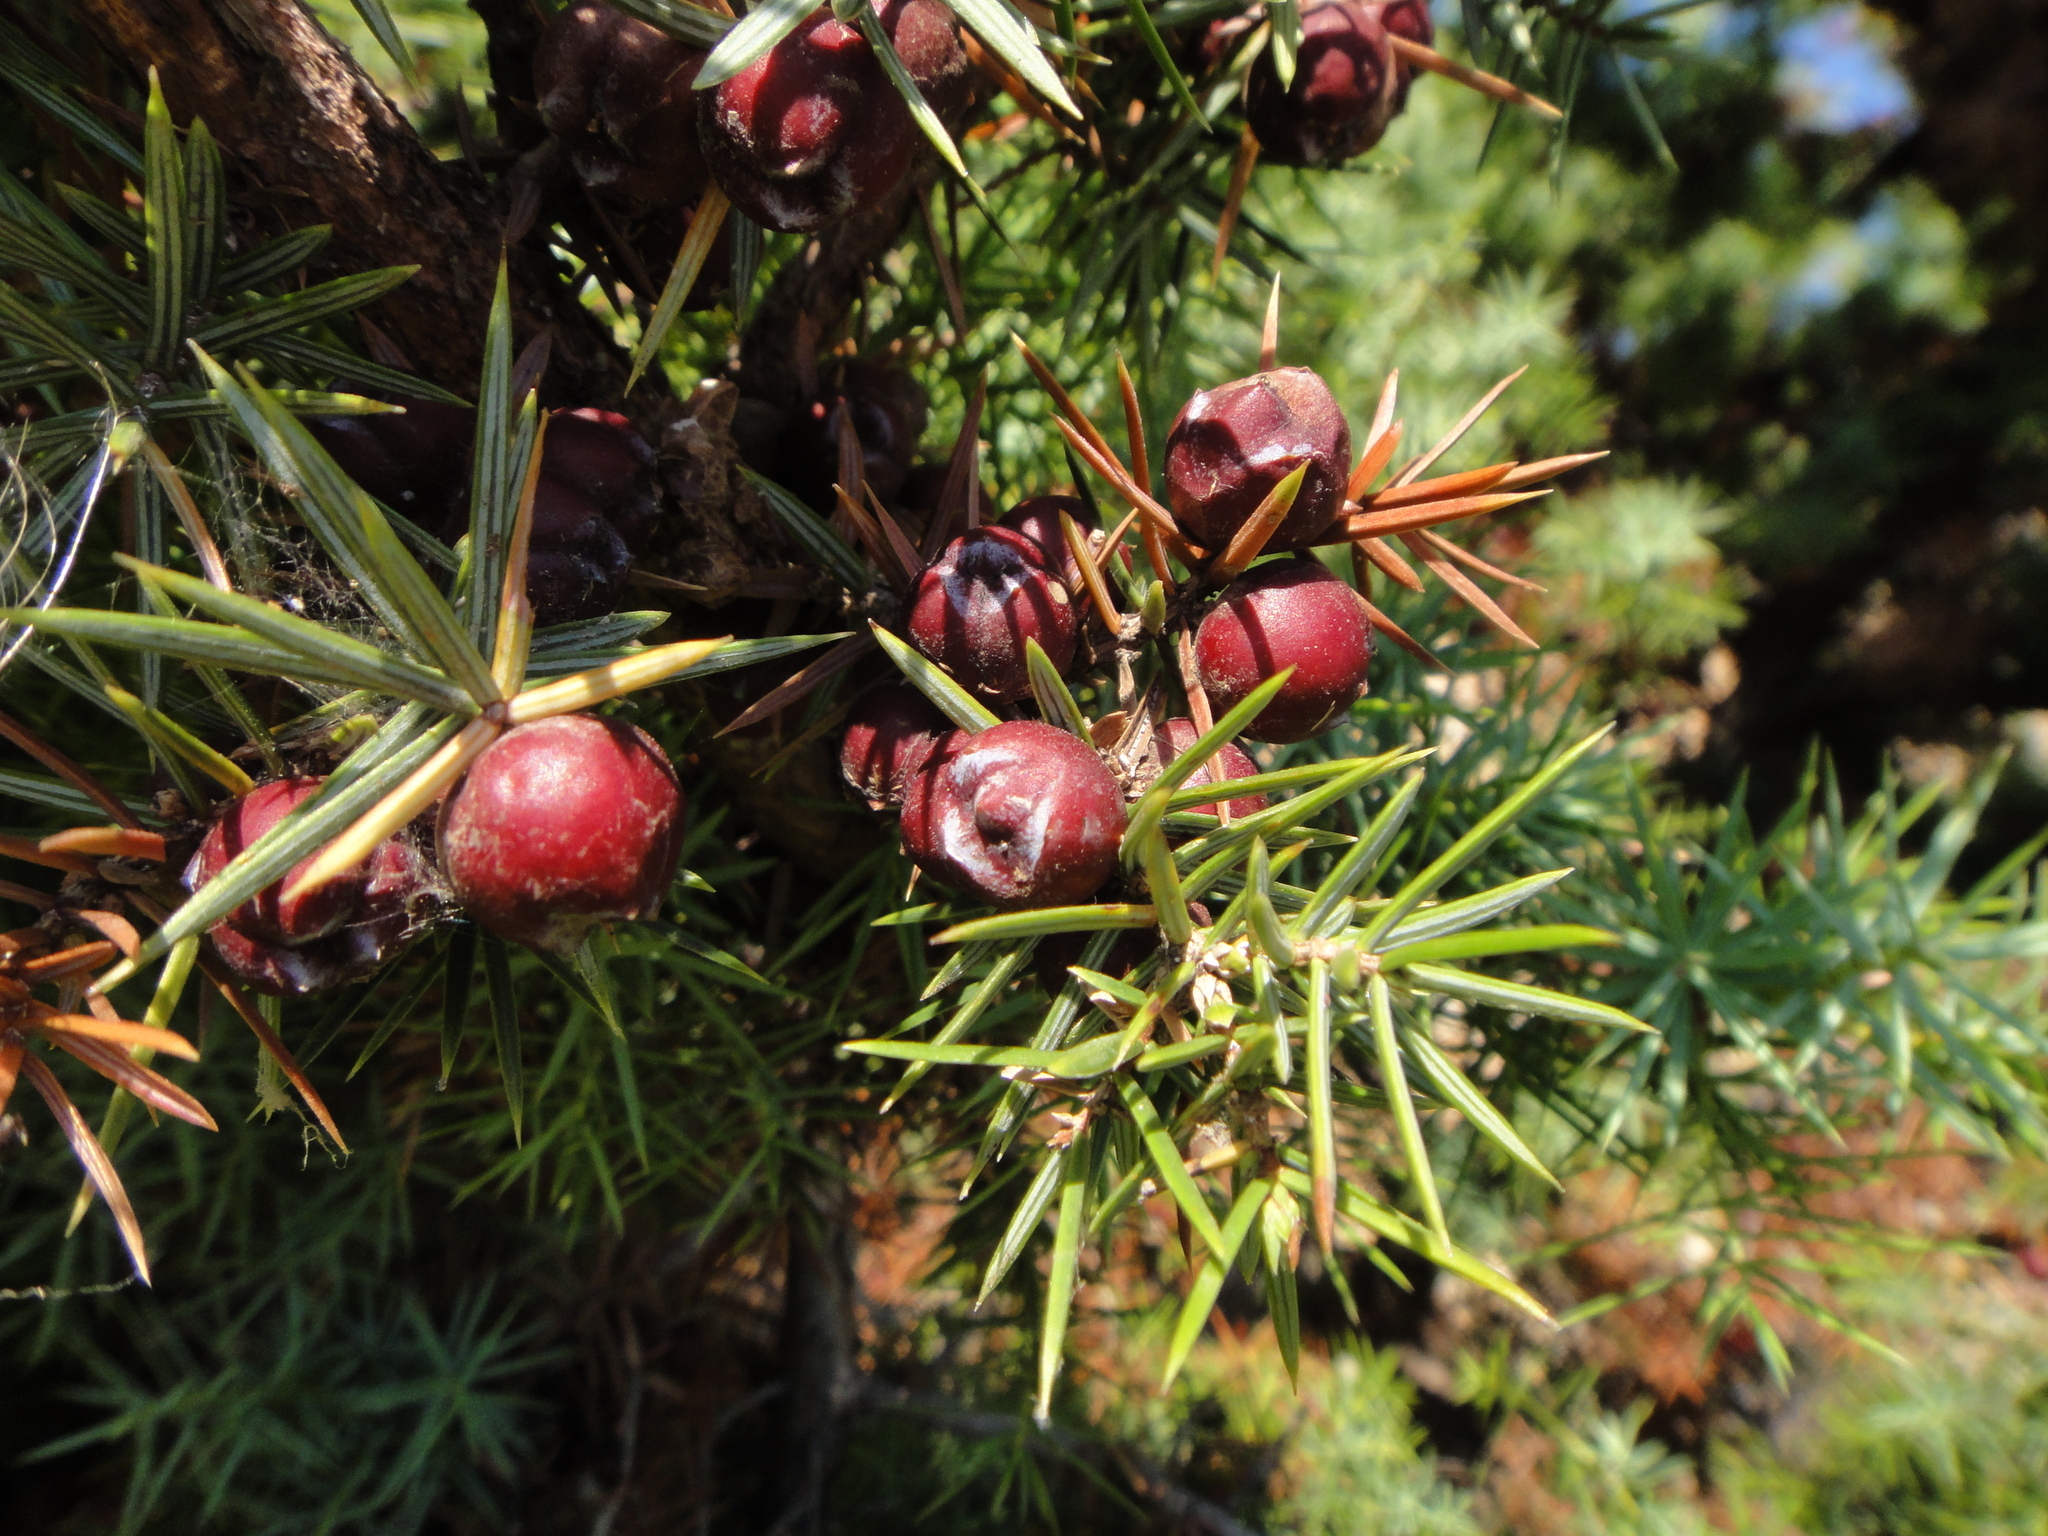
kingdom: Plantae
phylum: Tracheophyta
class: Pinopsida
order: Pinales
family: Cupressaceae
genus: Juniperus
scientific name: Juniperus oxycedrus
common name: Prickly juniper
